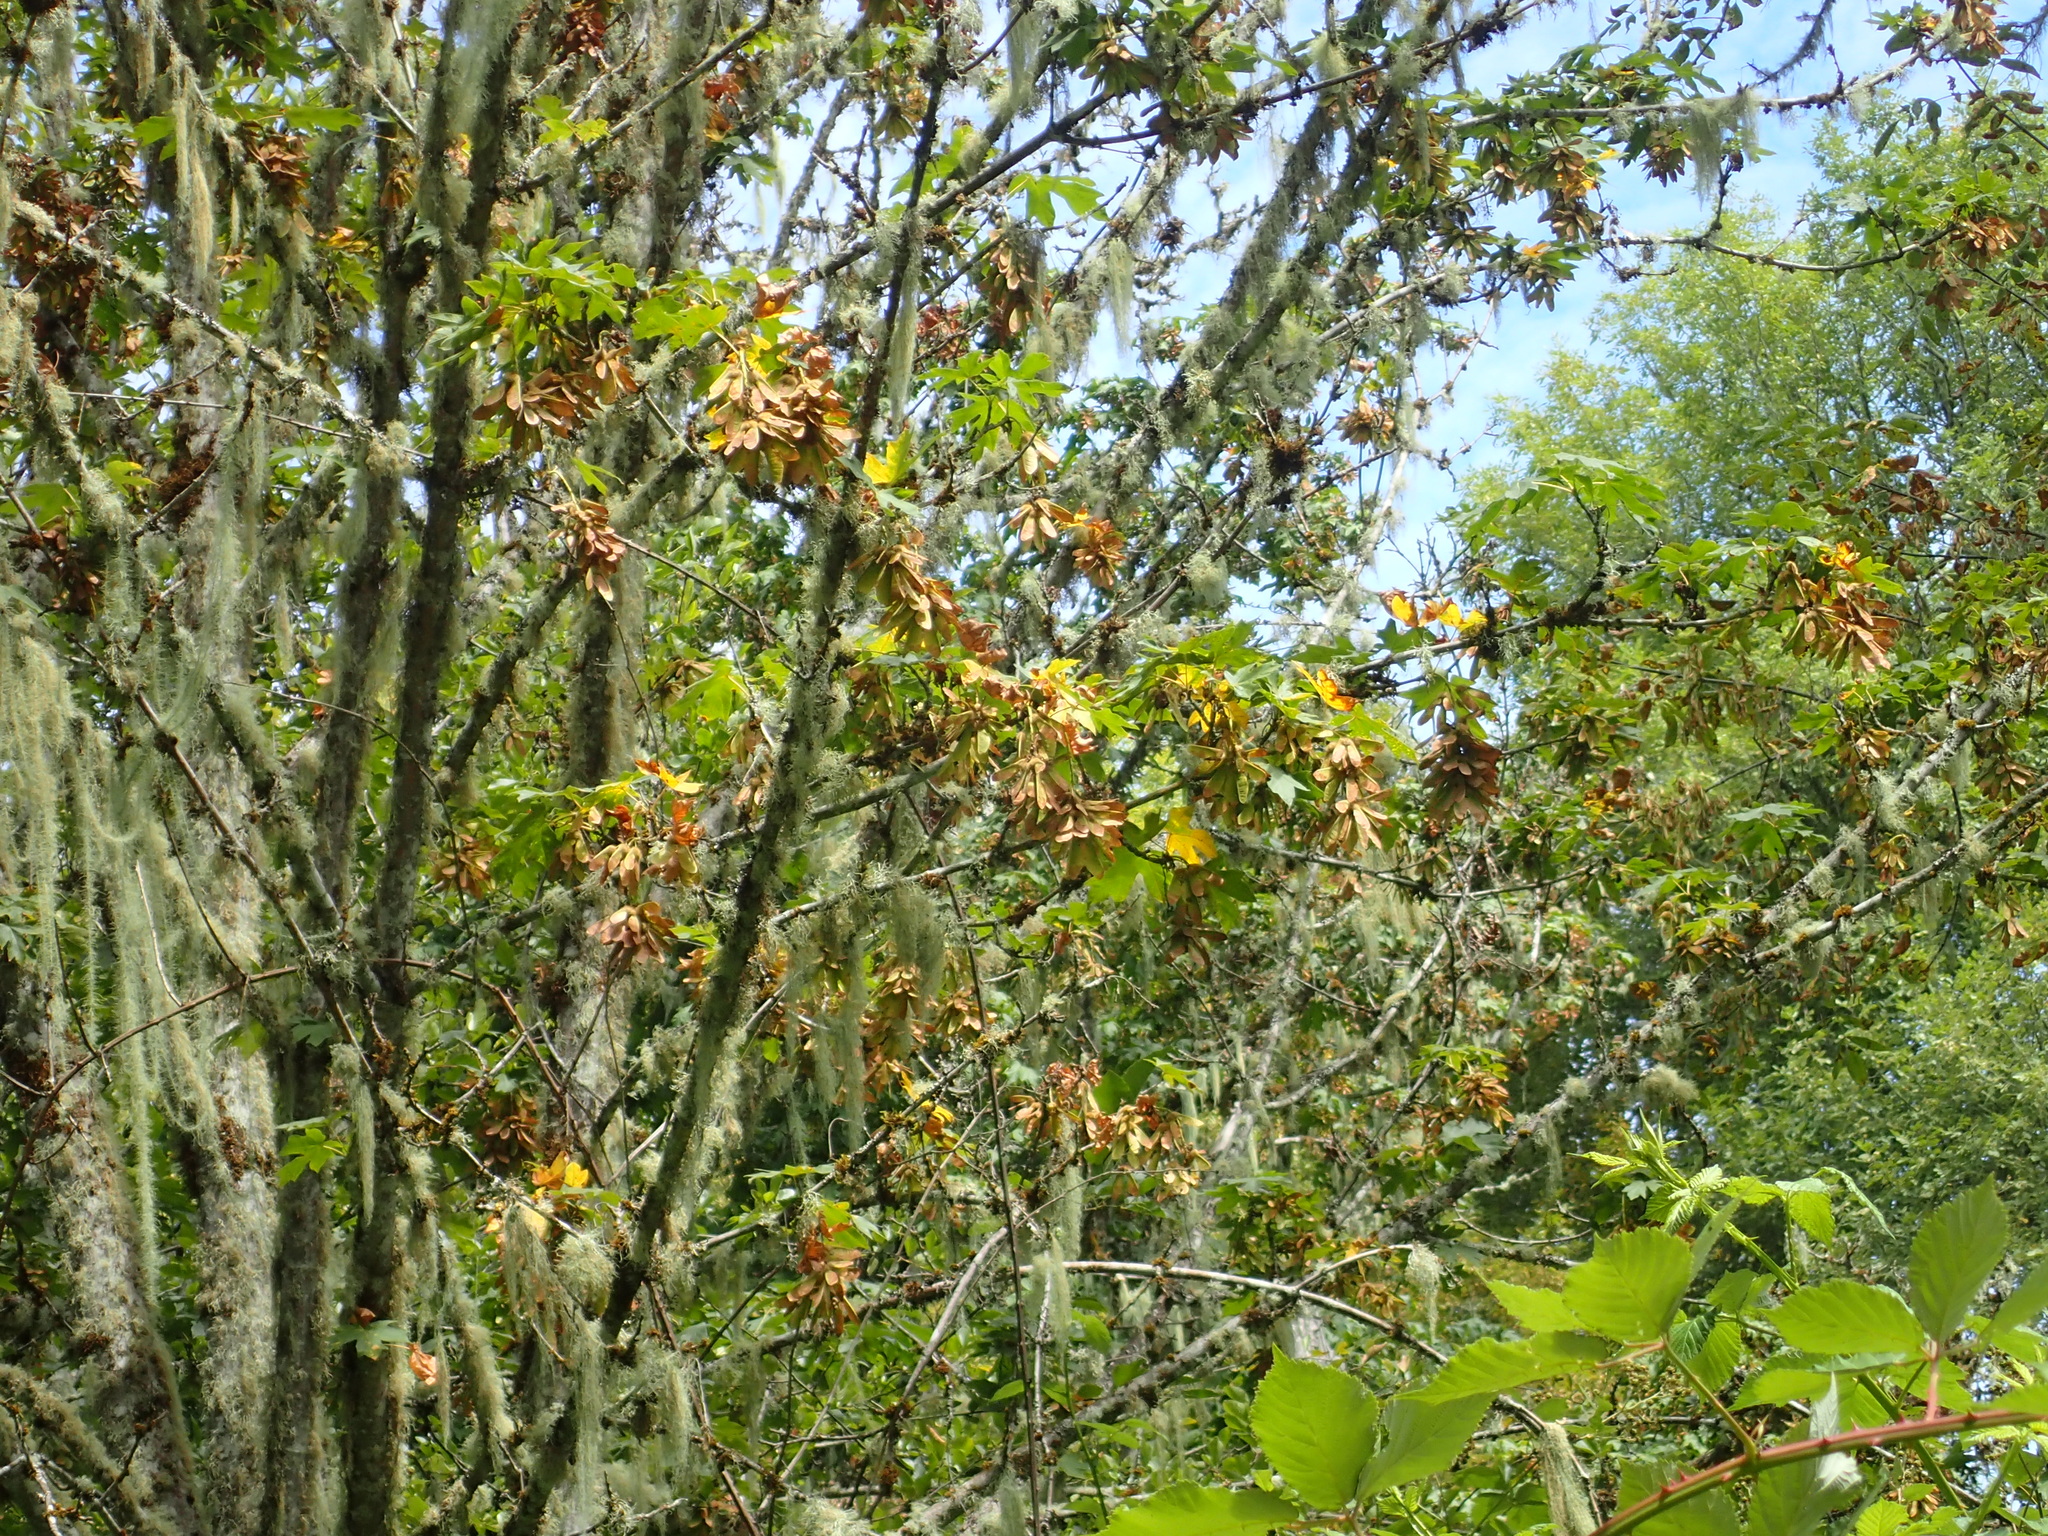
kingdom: Plantae
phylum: Tracheophyta
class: Magnoliopsida
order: Sapindales
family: Sapindaceae
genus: Acer
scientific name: Acer macrophyllum
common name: Oregon maple
